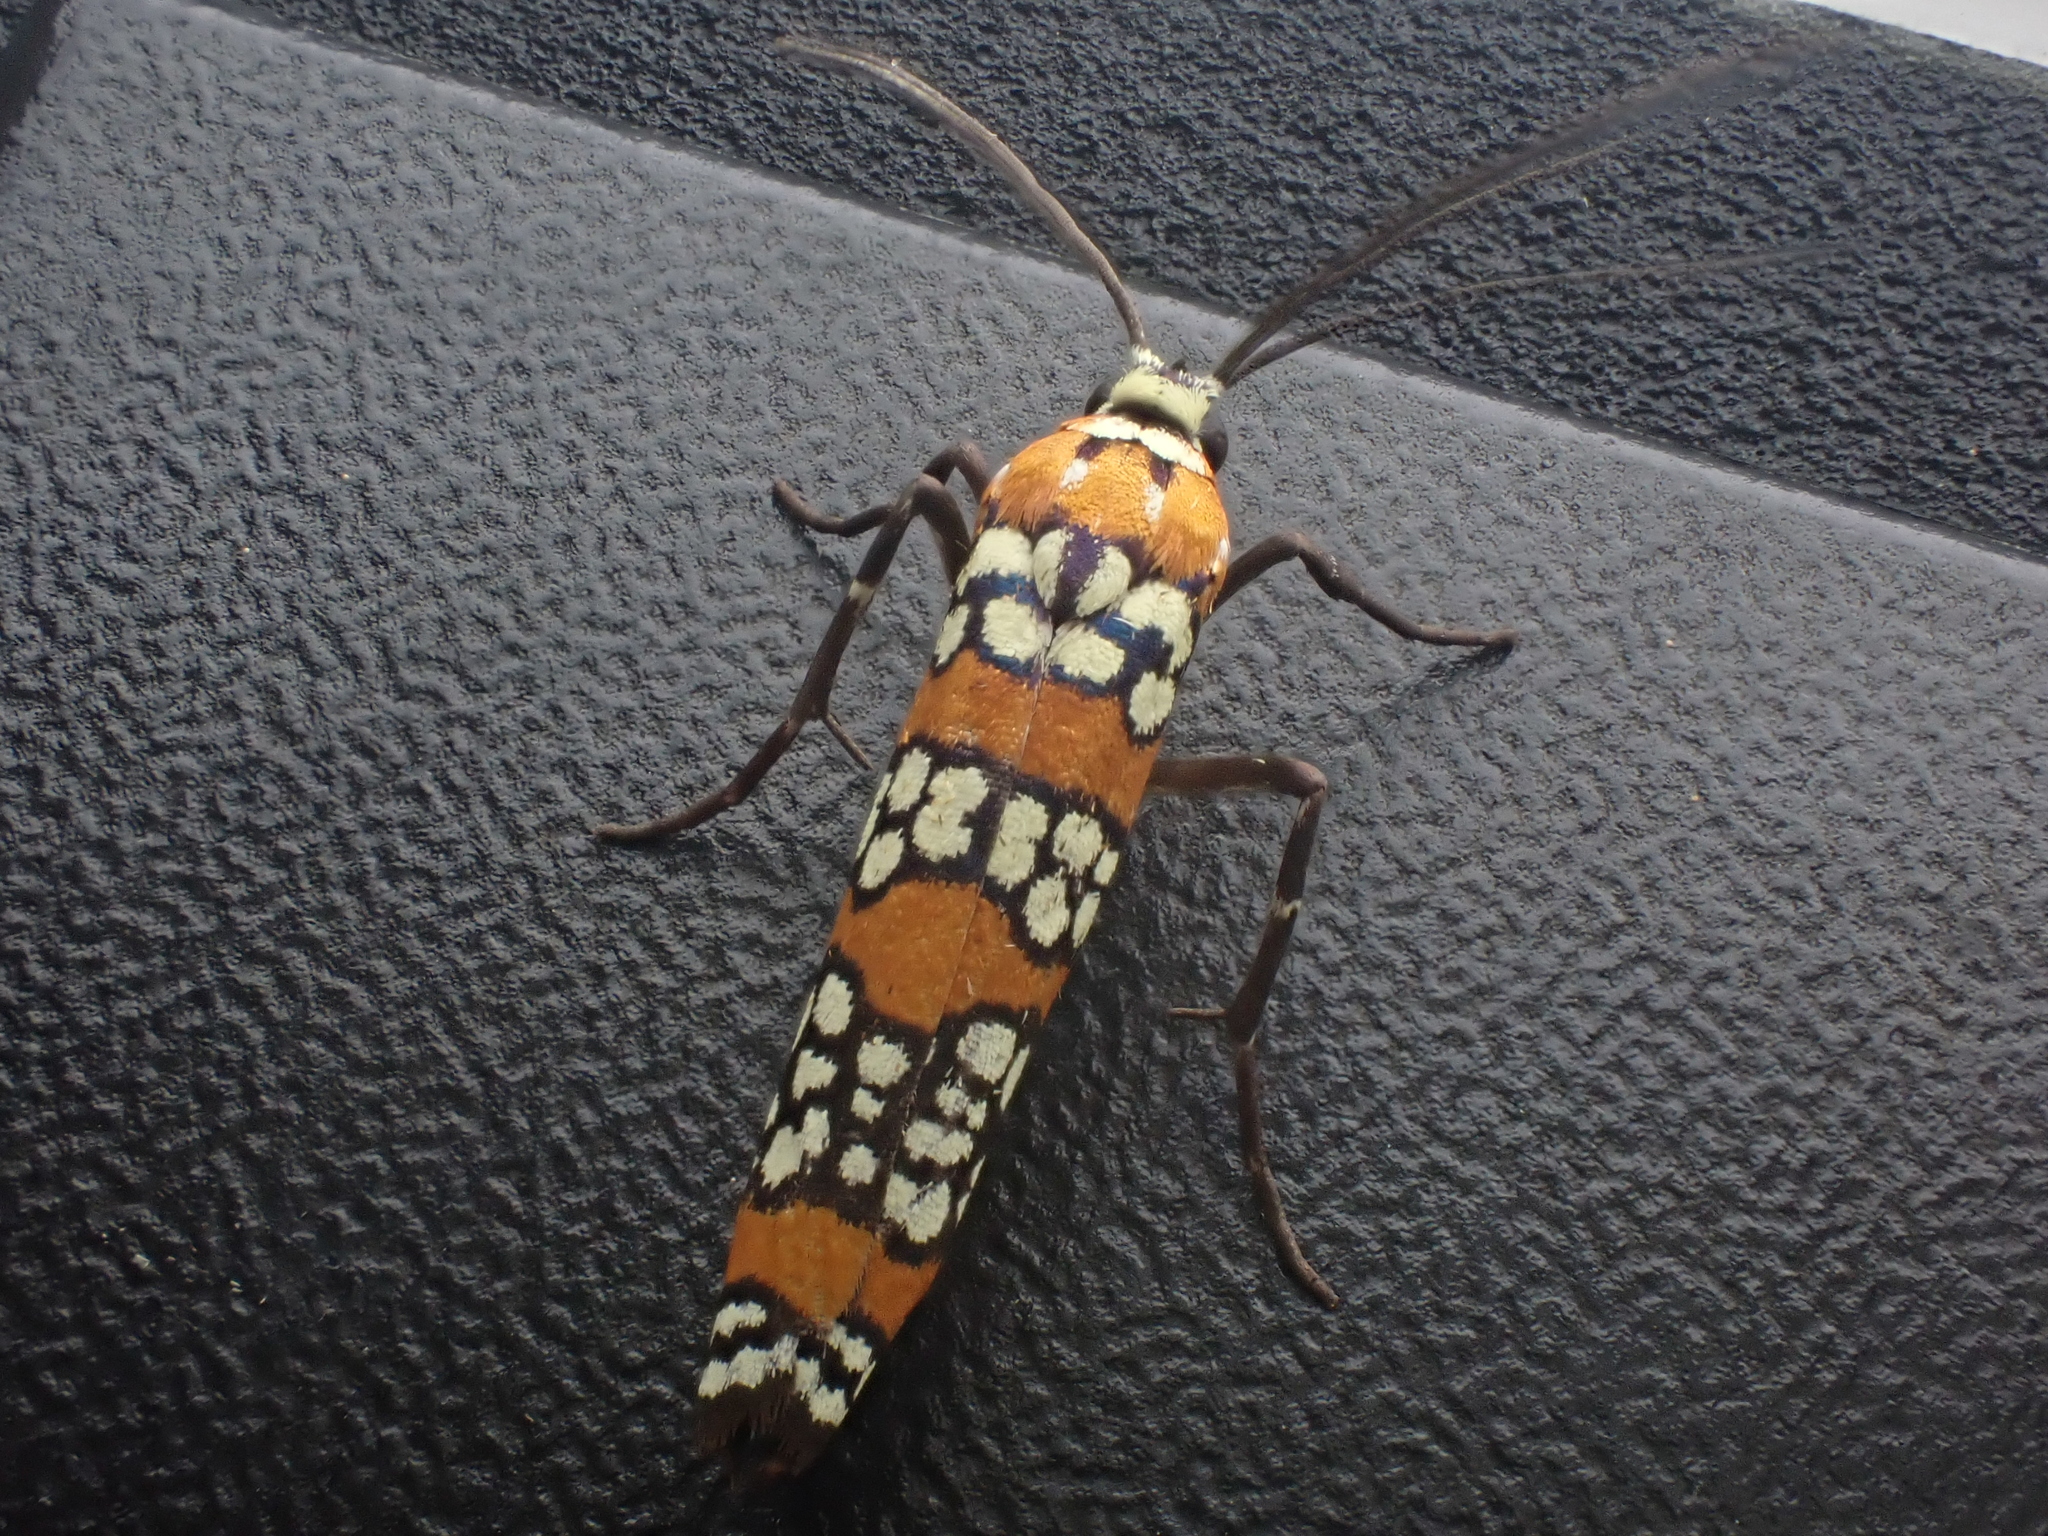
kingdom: Animalia
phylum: Arthropoda
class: Insecta
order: Lepidoptera
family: Attevidae
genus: Atteva
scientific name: Atteva punctella
